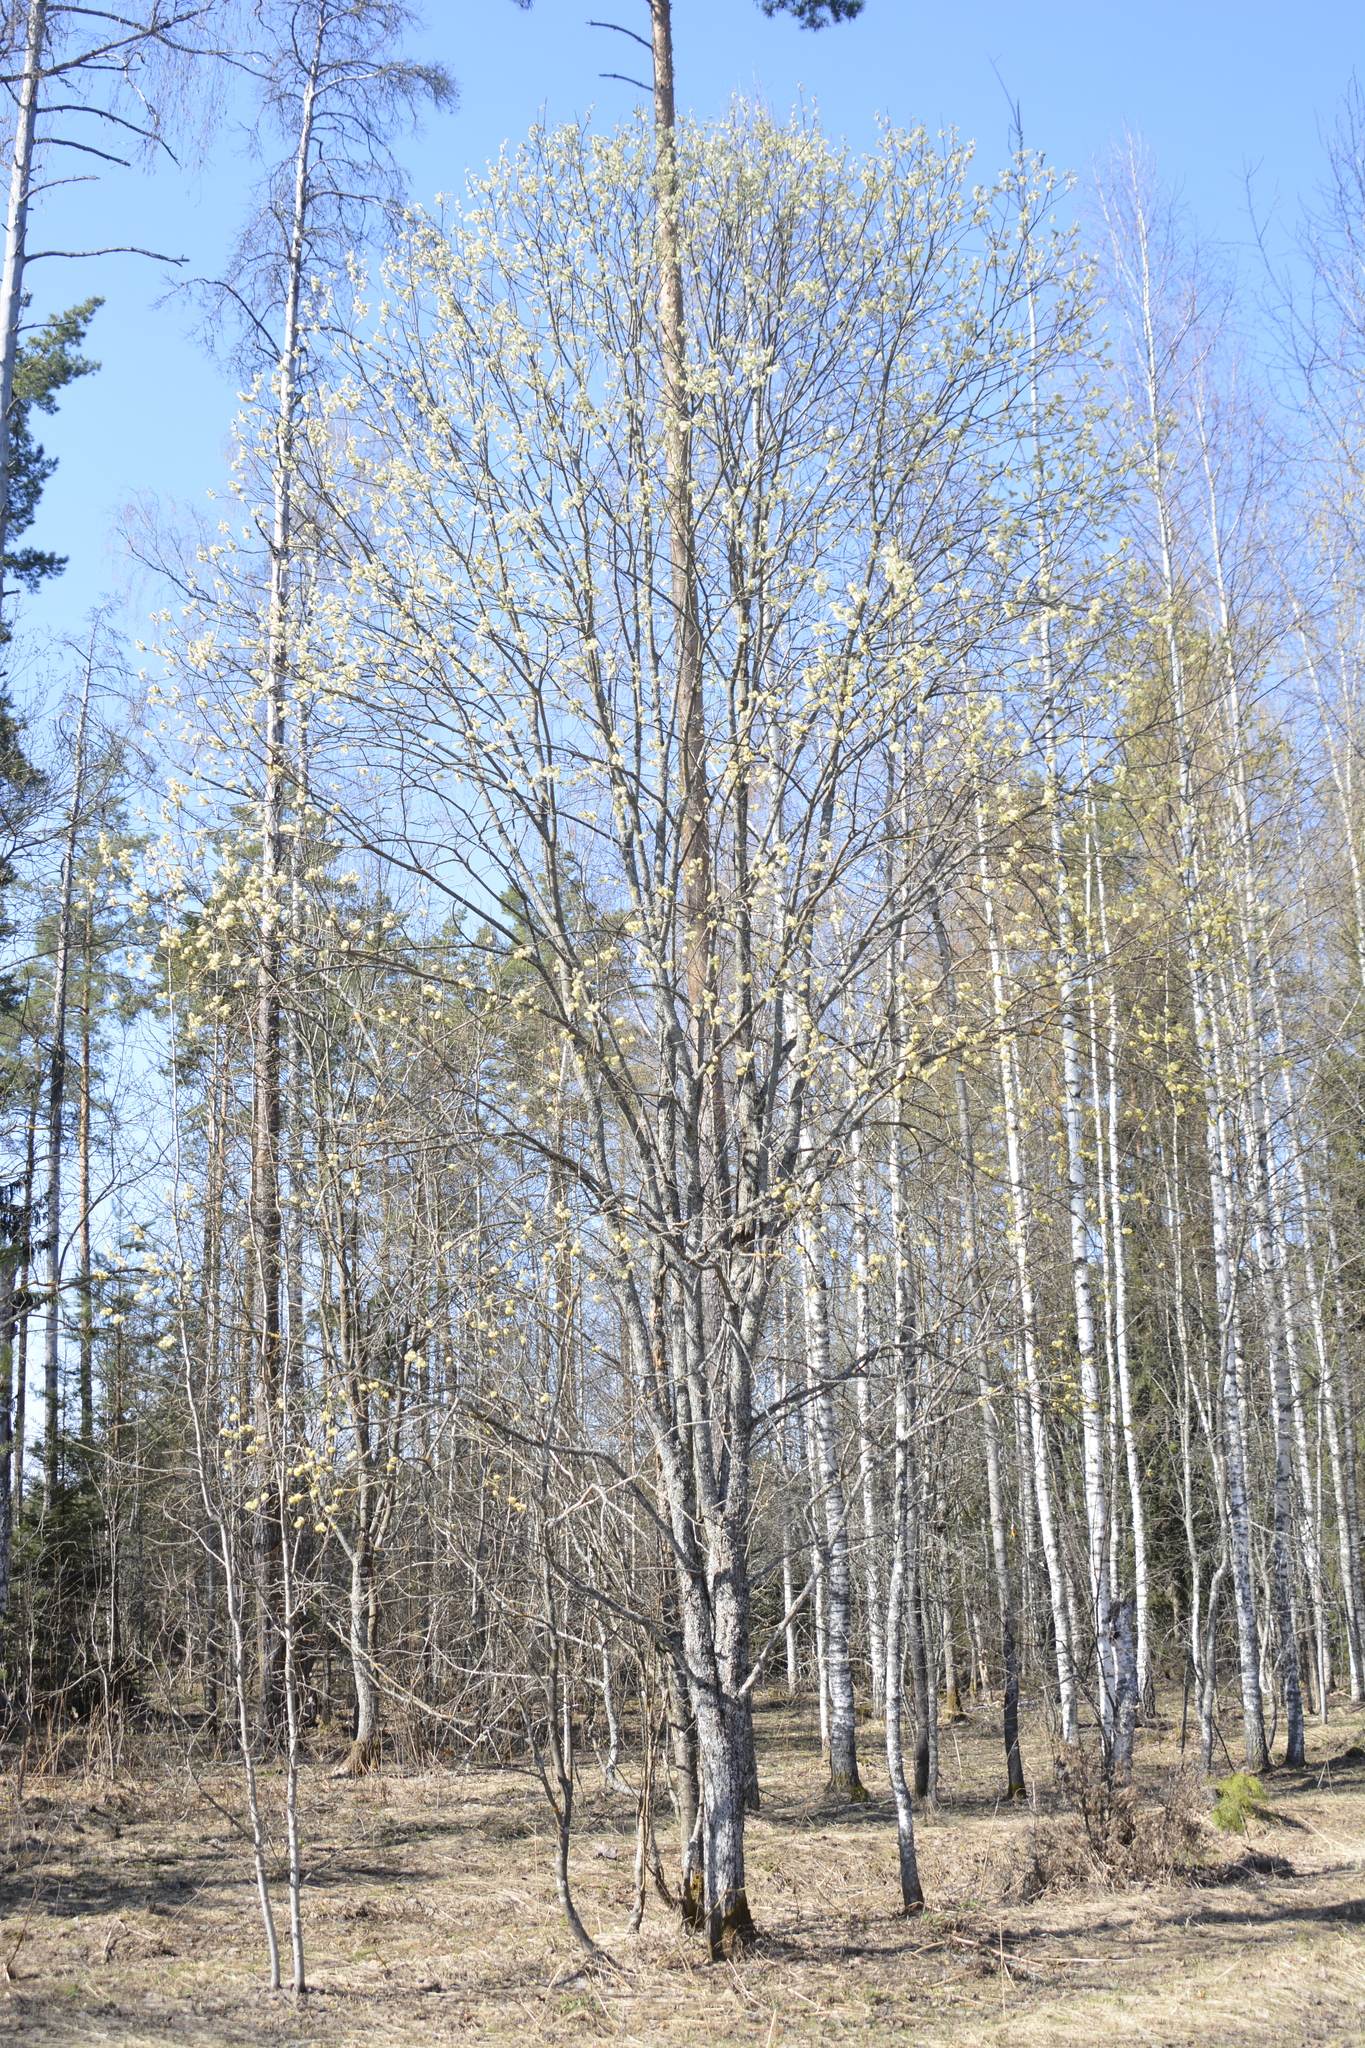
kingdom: Plantae
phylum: Tracheophyta
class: Magnoliopsida
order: Malpighiales
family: Salicaceae
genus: Salix
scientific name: Salix caprea
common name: Goat willow
